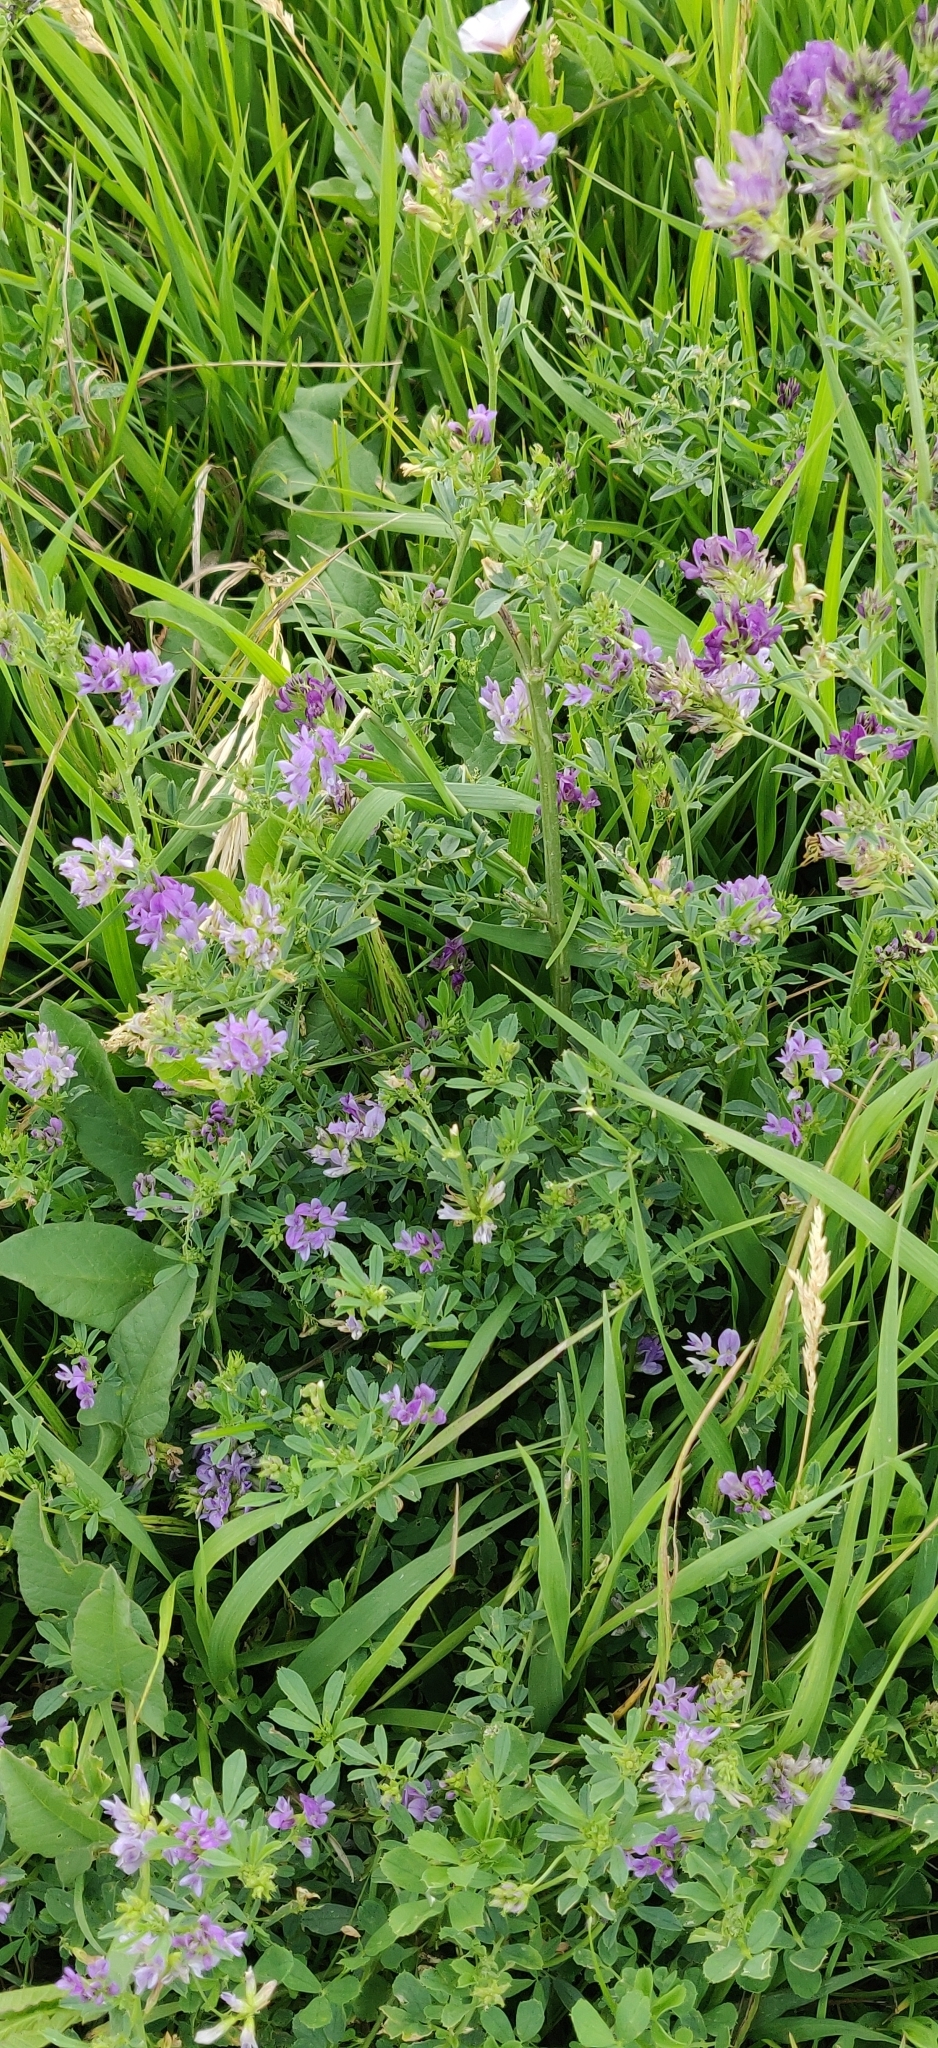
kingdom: Plantae
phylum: Tracheophyta
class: Magnoliopsida
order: Fabales
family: Fabaceae
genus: Medicago
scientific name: Medicago sativa
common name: Alfalfa
